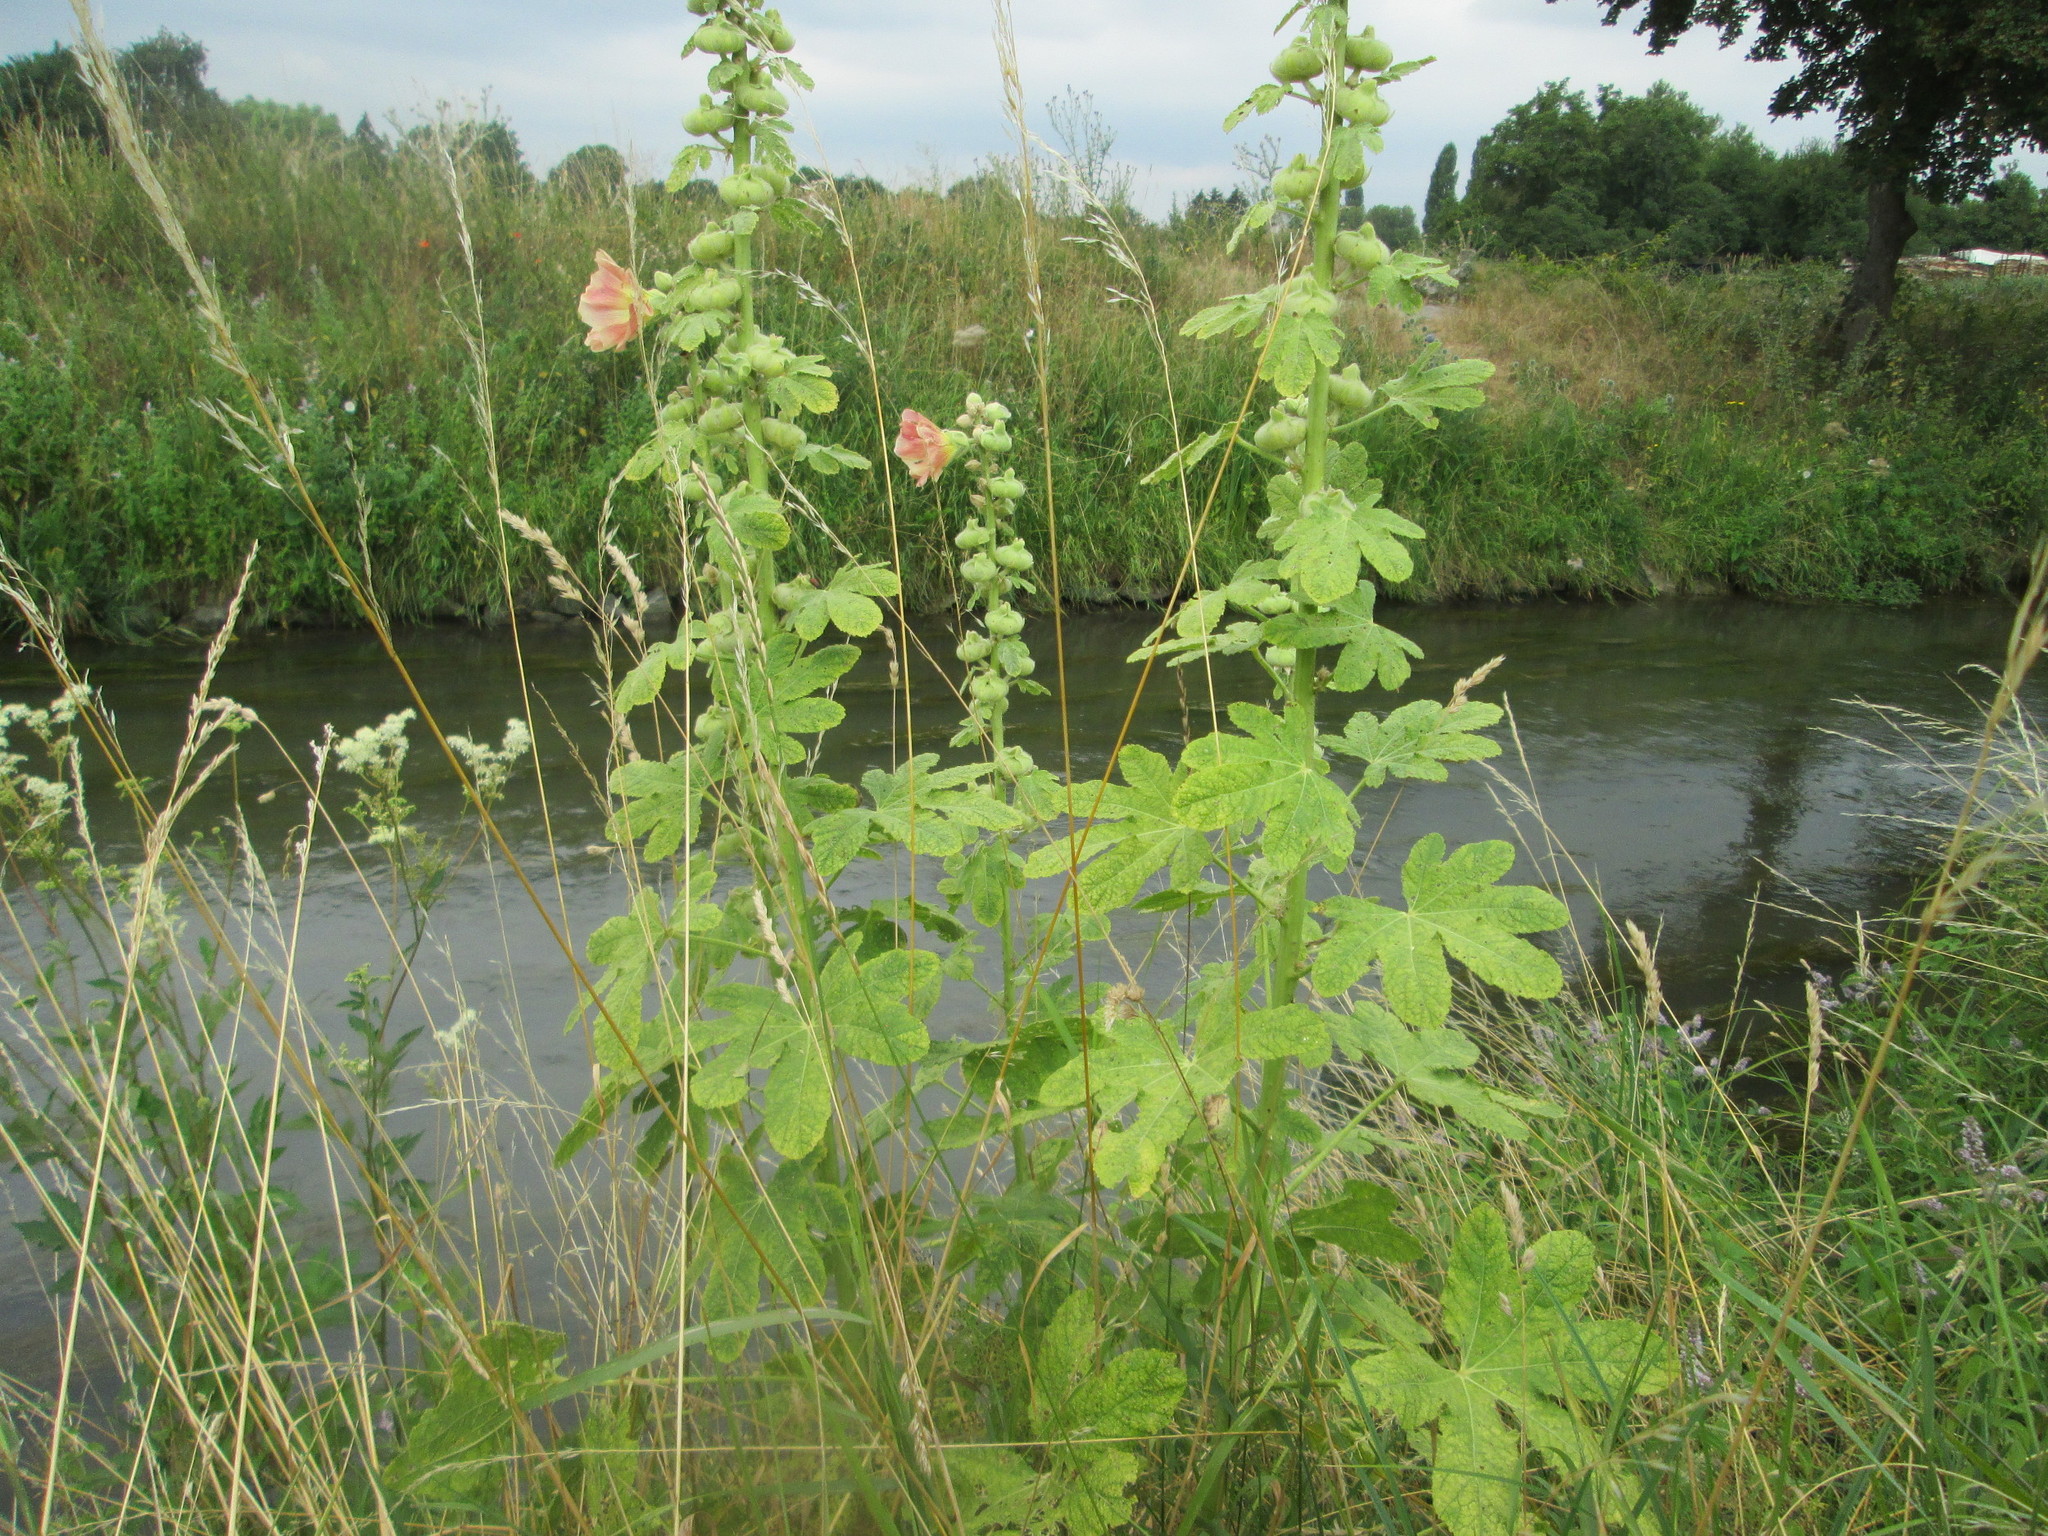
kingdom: Plantae
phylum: Tracheophyta
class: Magnoliopsida
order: Malvales
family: Malvaceae
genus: Alcea
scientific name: Alcea rosea
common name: Hollyhock
